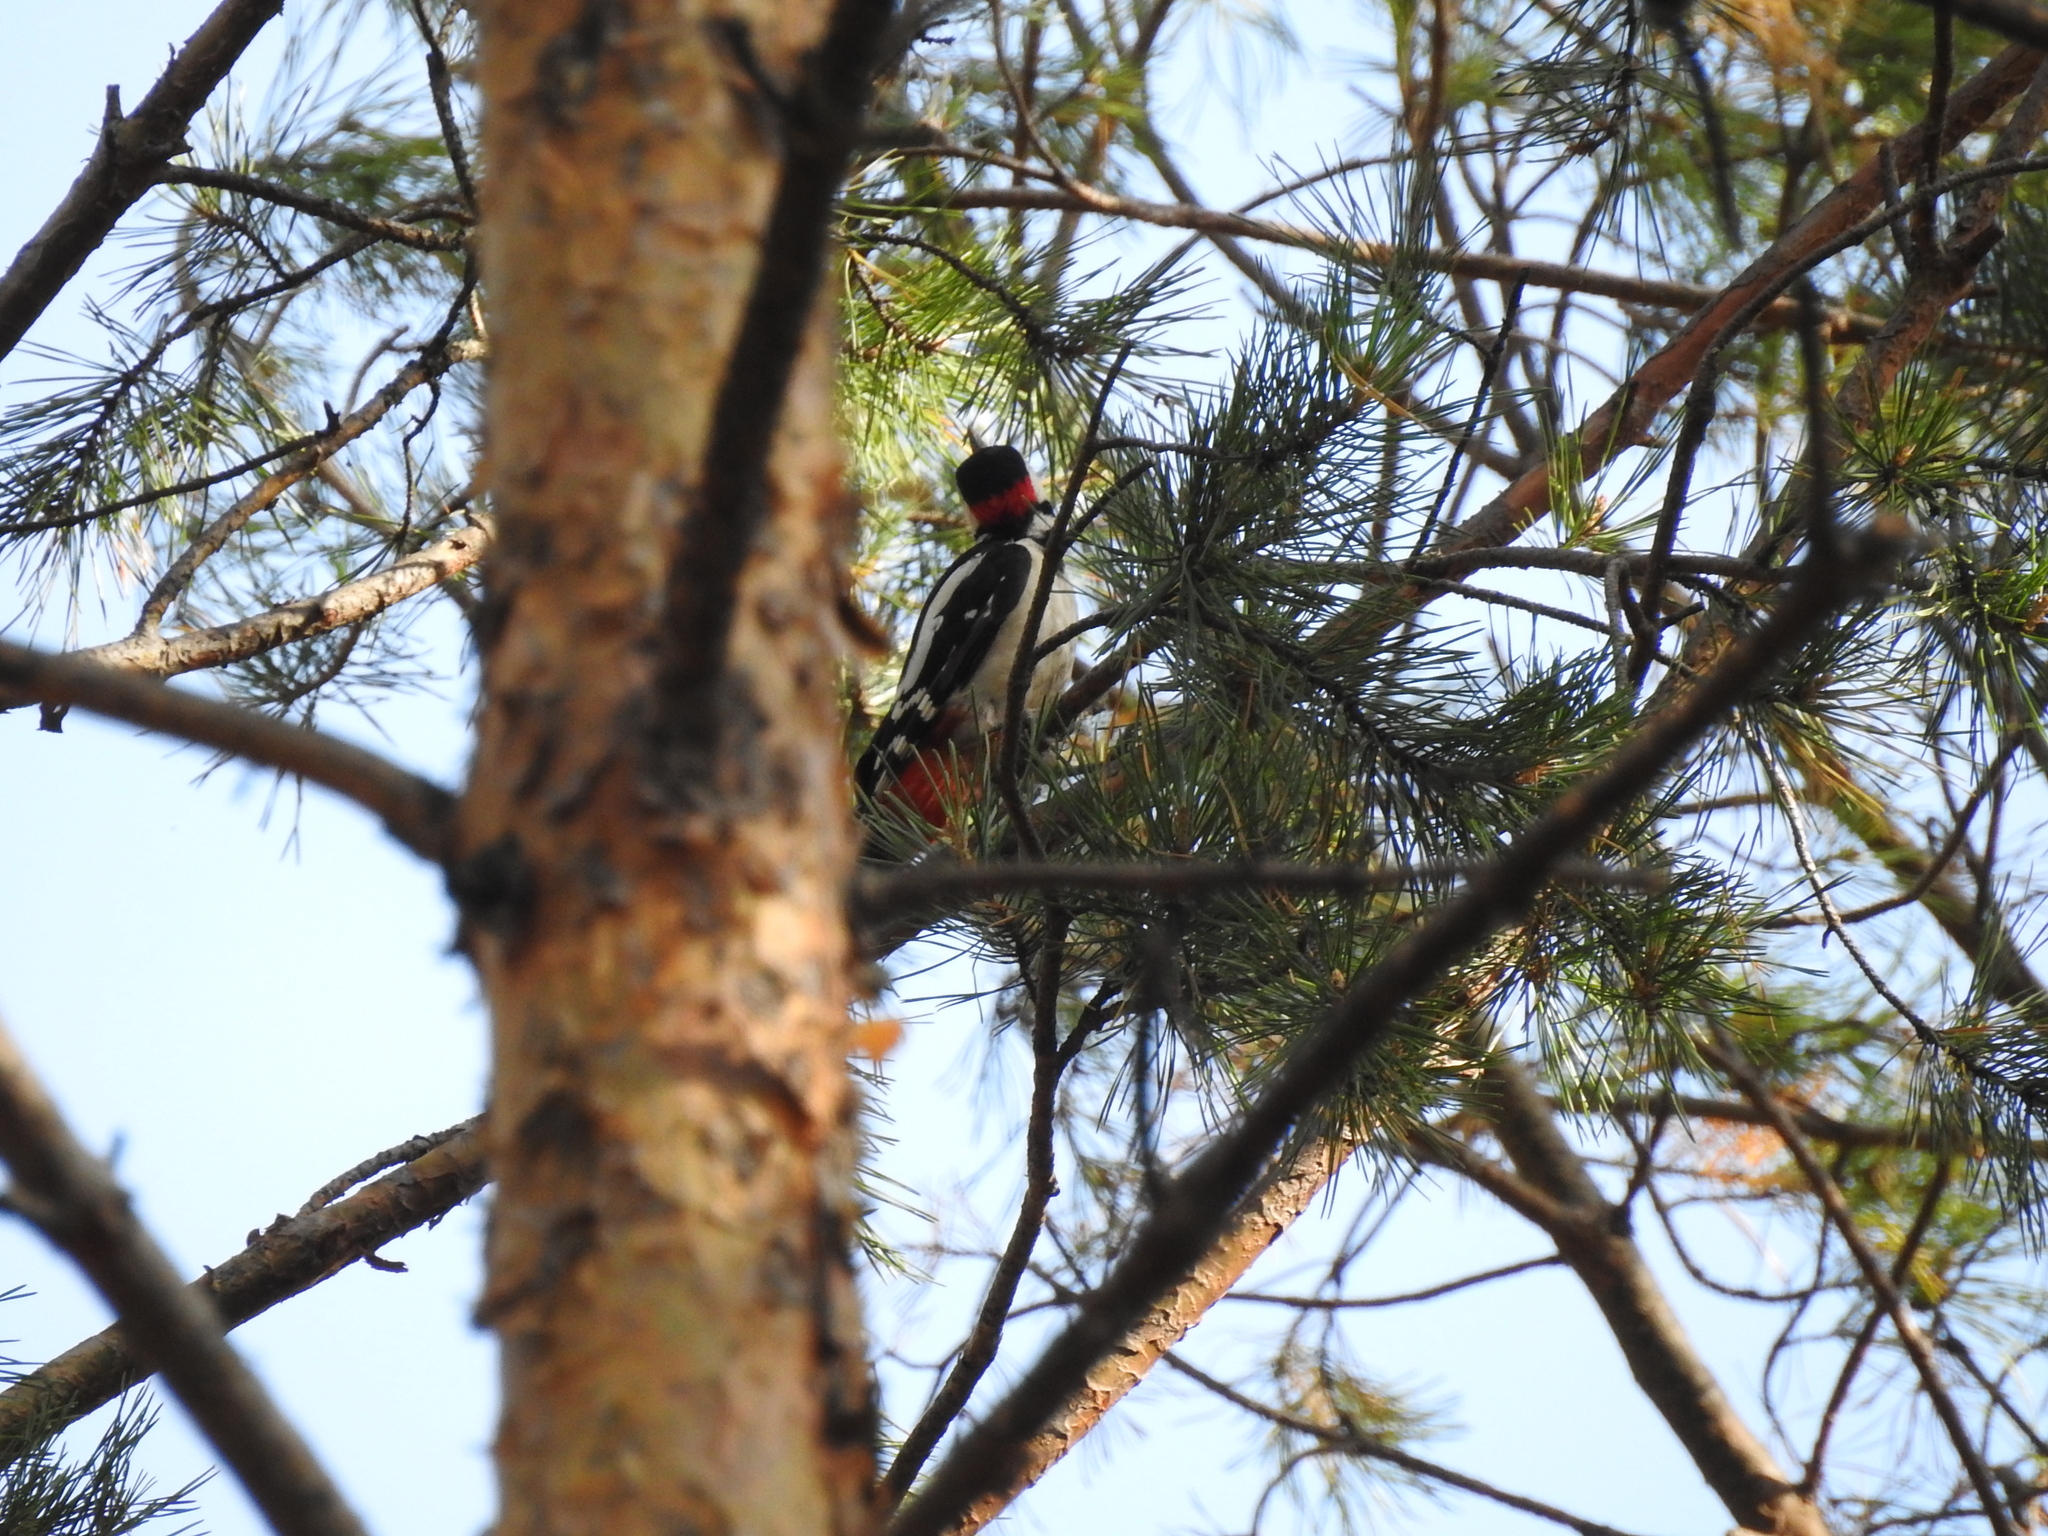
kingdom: Animalia
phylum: Chordata
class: Aves
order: Piciformes
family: Picidae
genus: Dendrocopos
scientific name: Dendrocopos major
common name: Great spotted woodpecker
